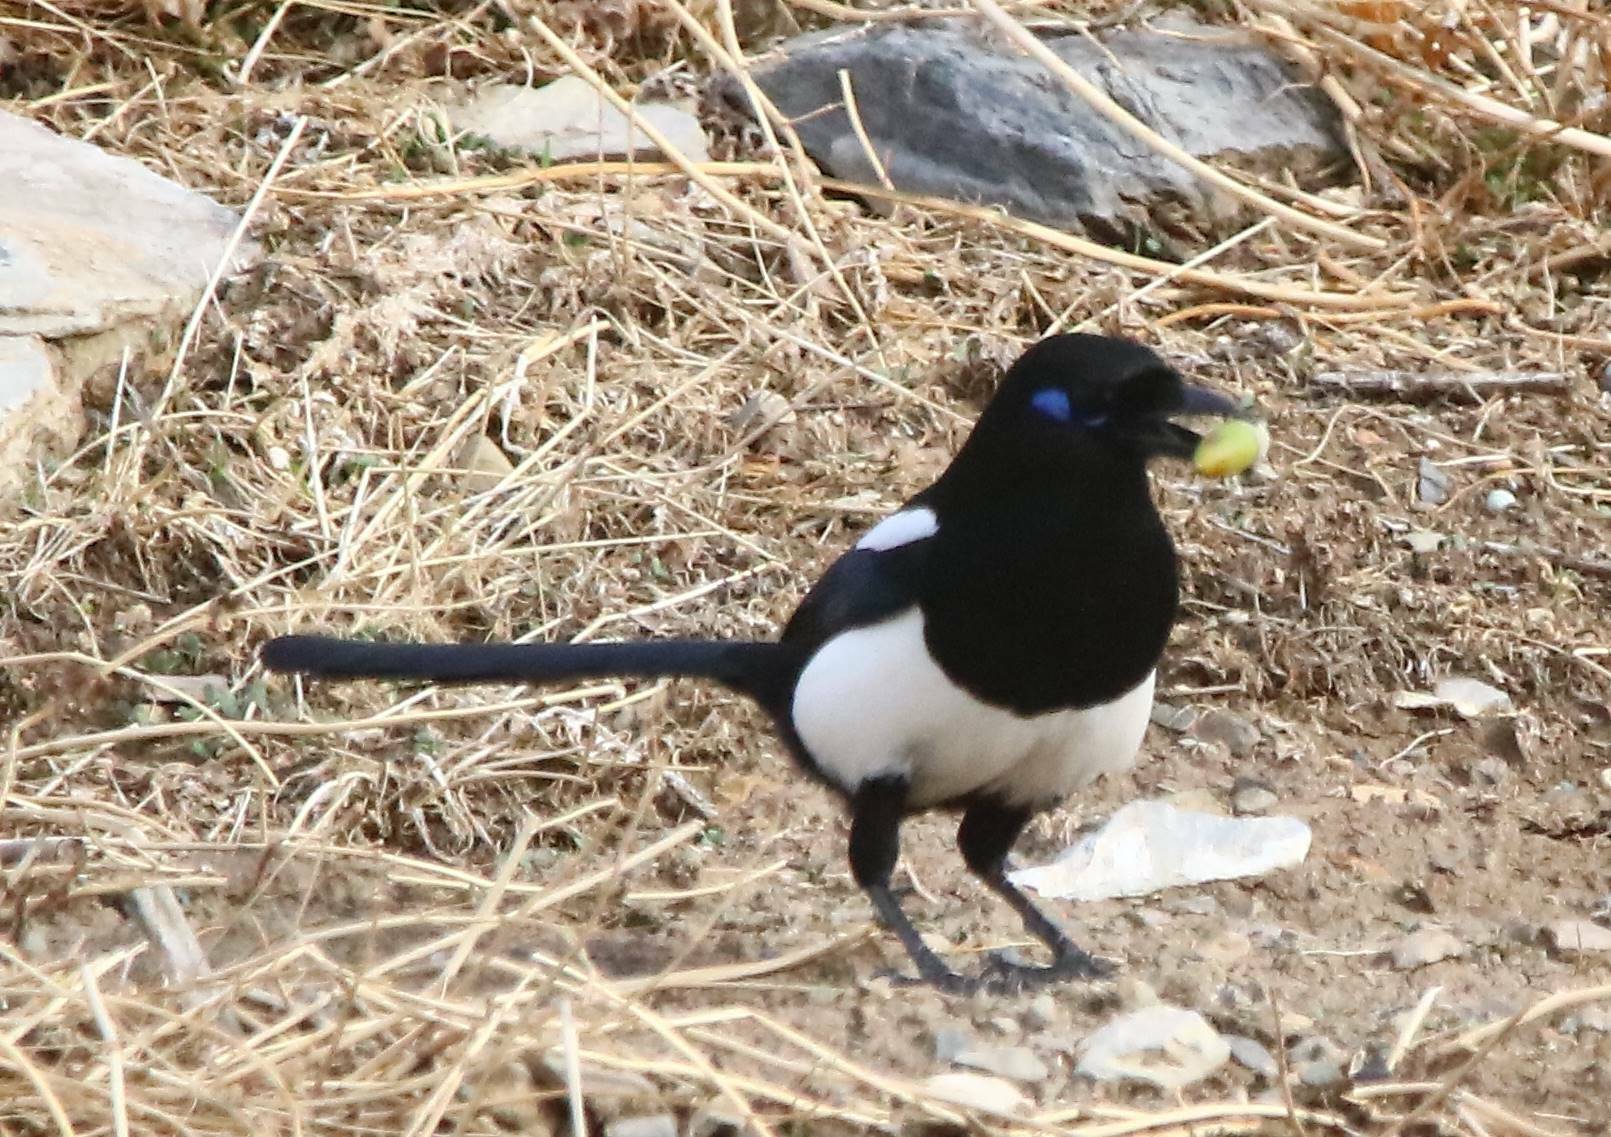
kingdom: Animalia
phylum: Chordata
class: Aves
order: Passeriformes
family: Corvidae
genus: Pica
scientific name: Pica mauritanica
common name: Maghreb magpie
